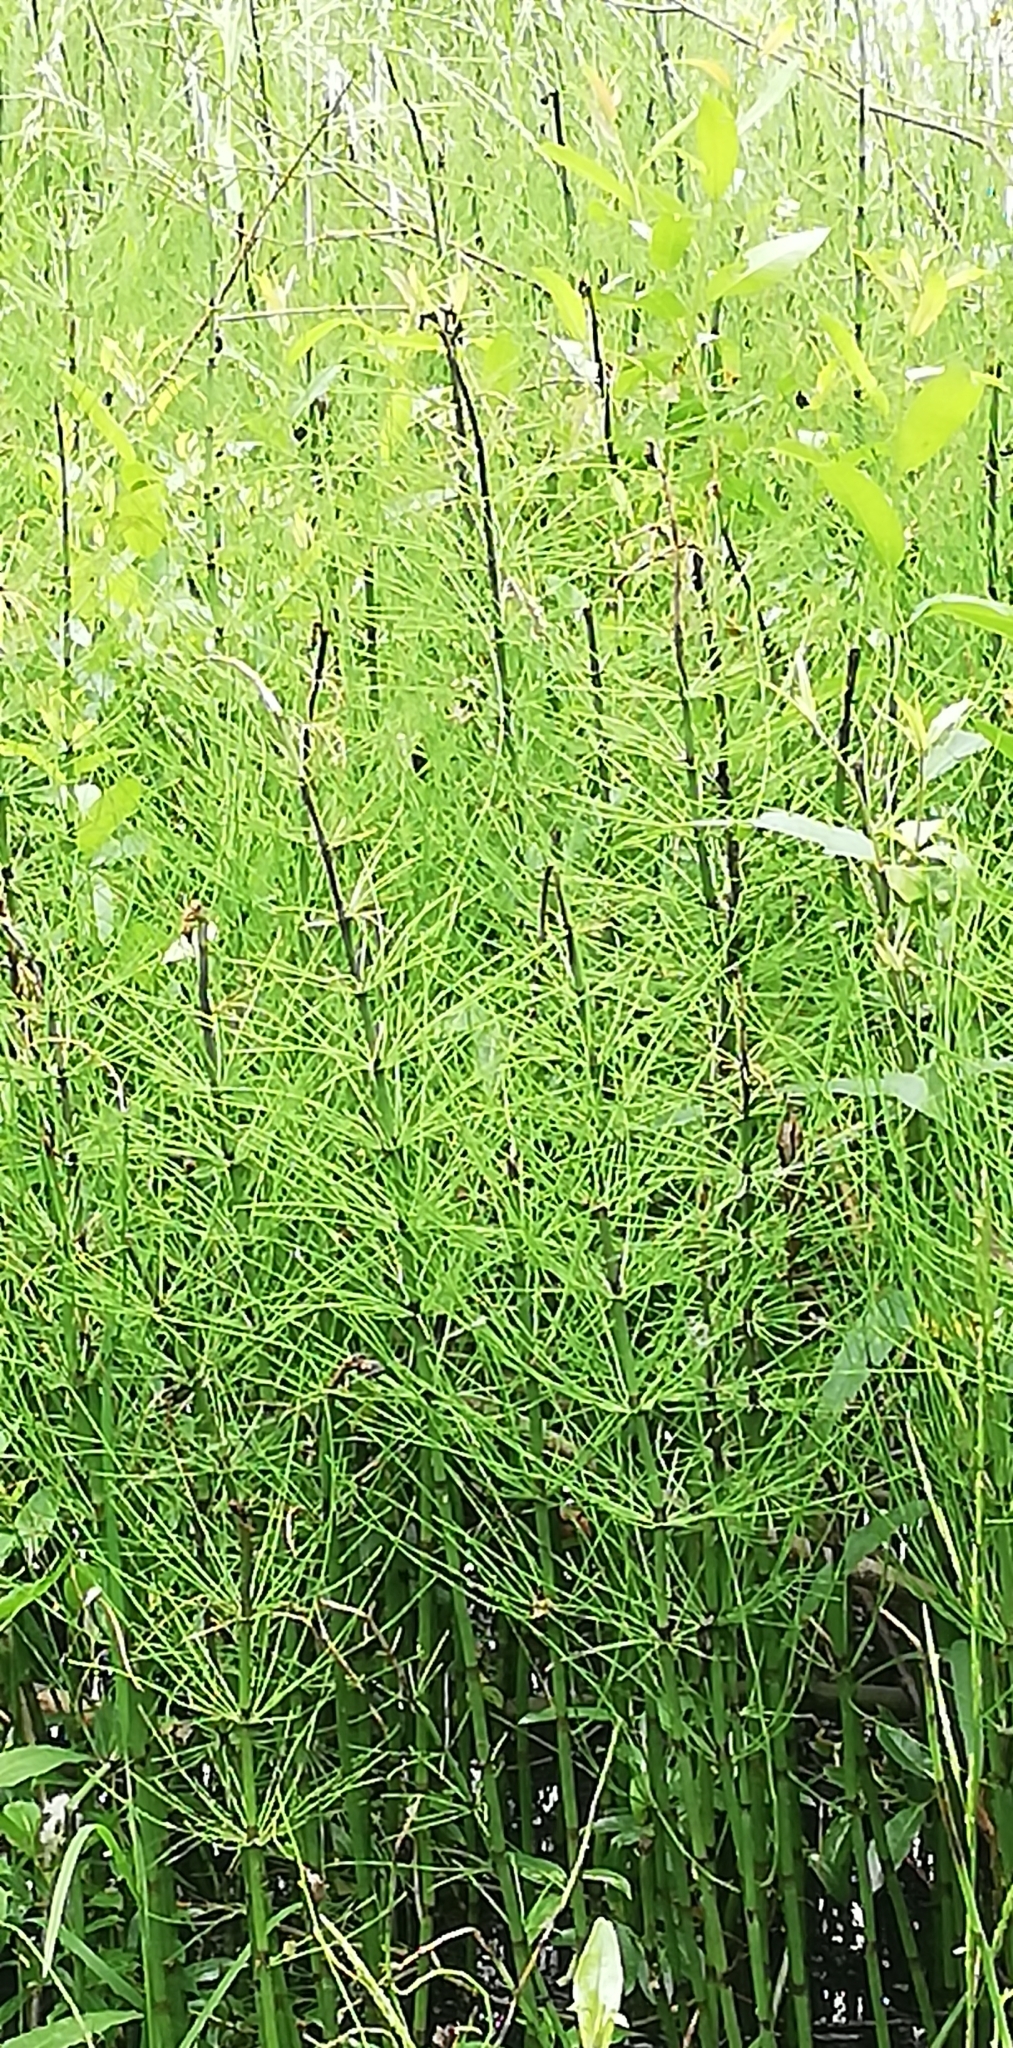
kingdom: Plantae
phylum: Tracheophyta
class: Polypodiopsida
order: Equisetales
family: Equisetaceae
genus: Equisetum
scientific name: Equisetum fluviatile
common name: Water horsetail
